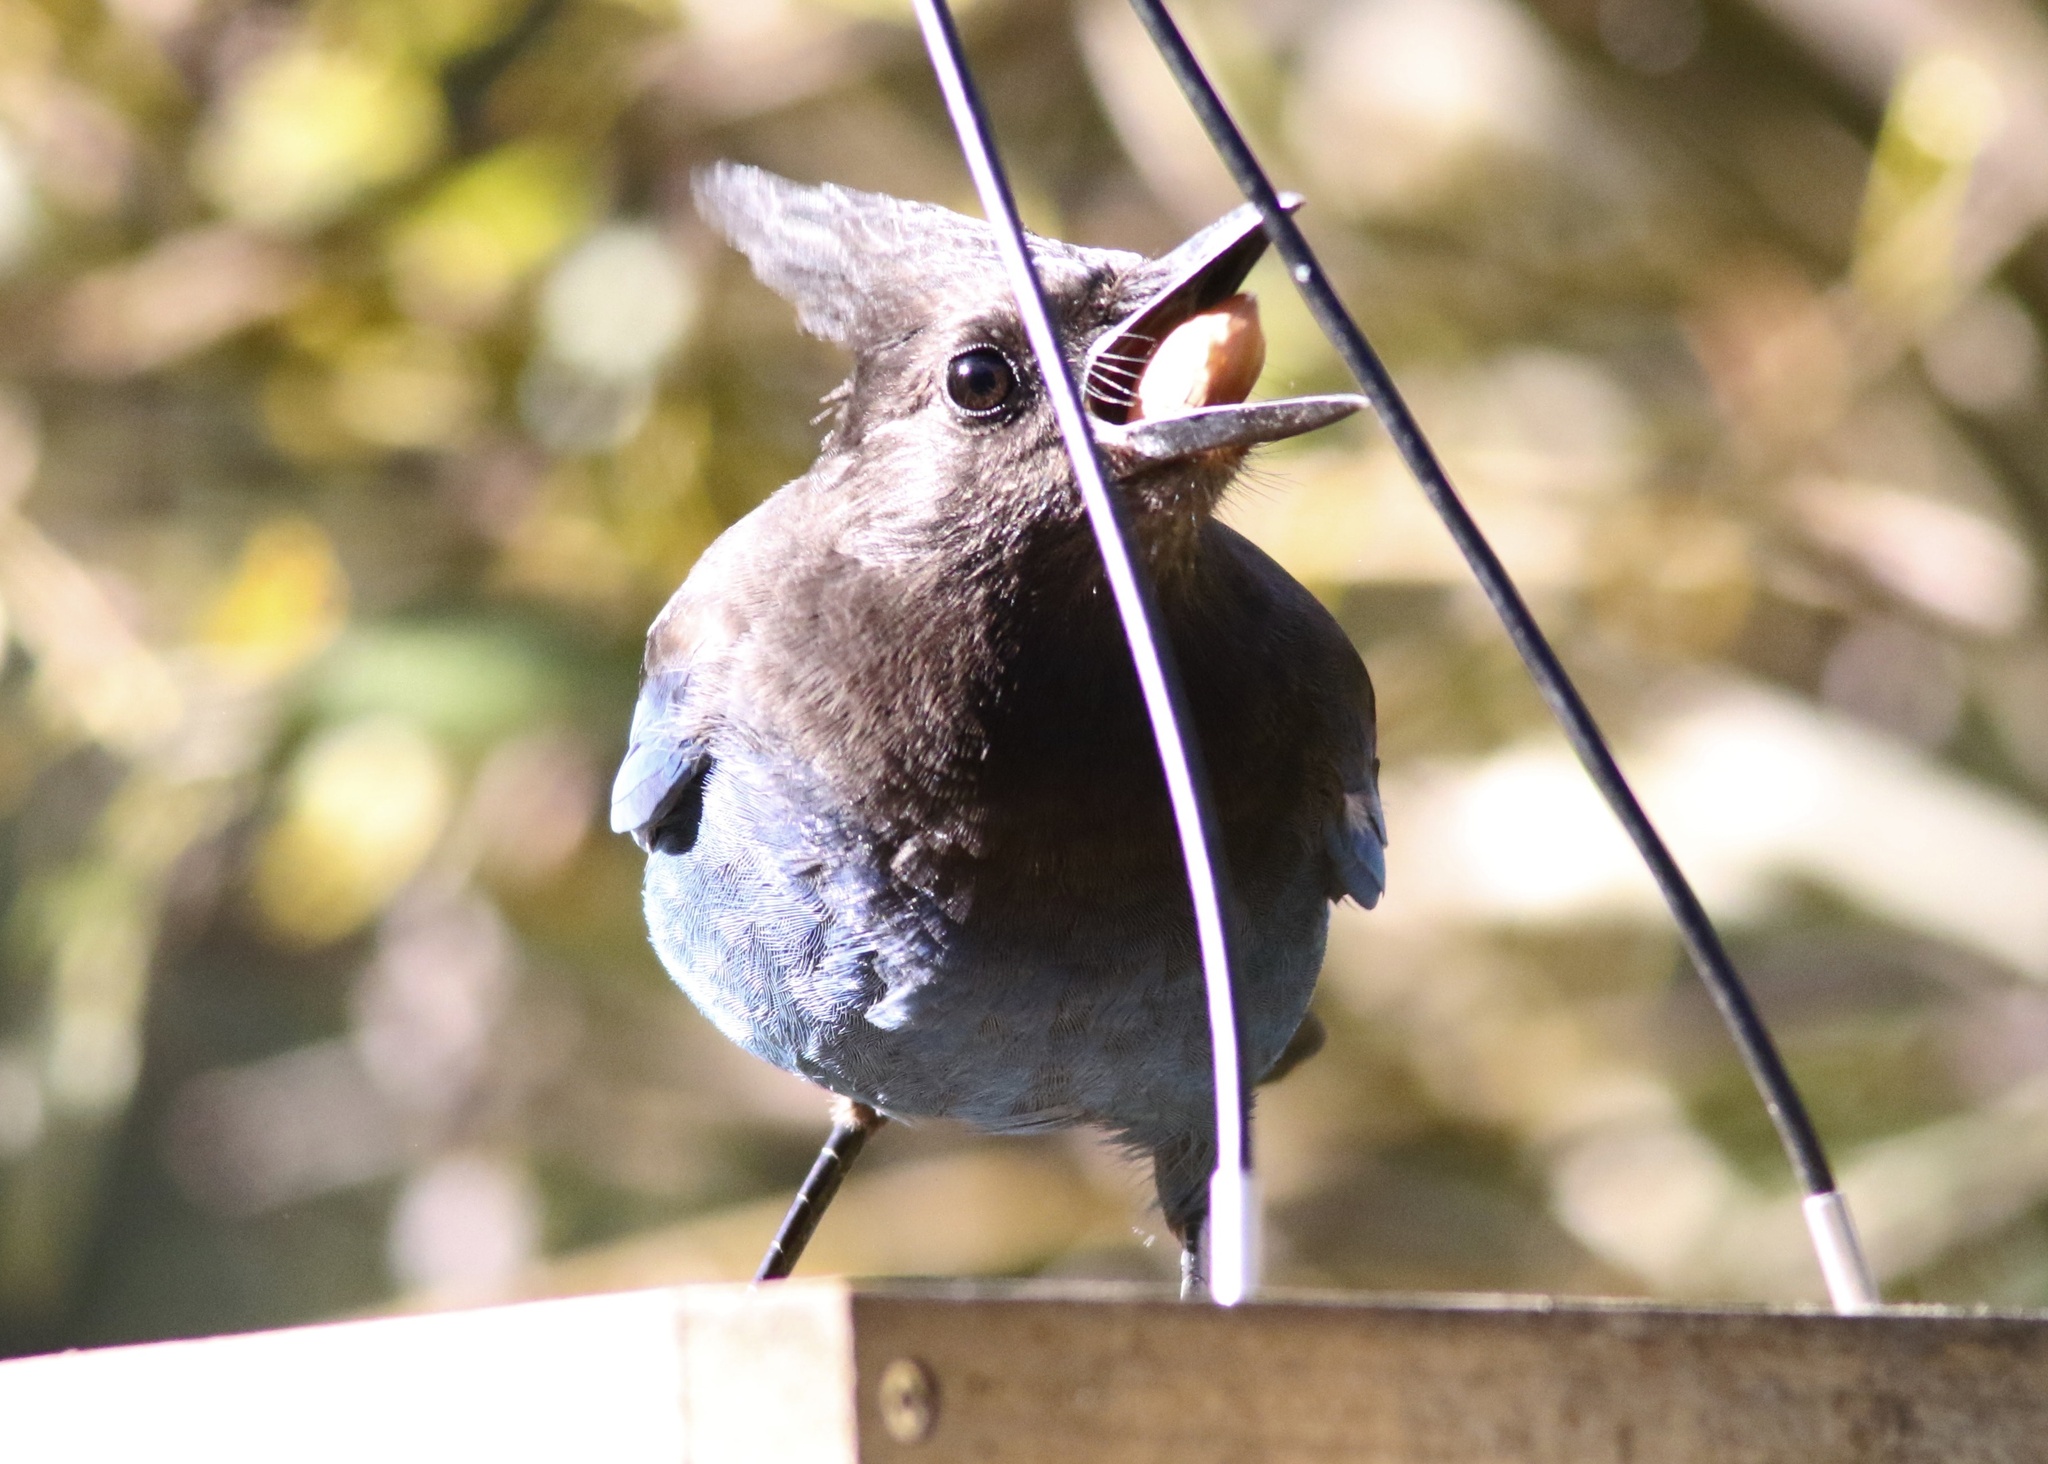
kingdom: Animalia
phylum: Chordata
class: Aves
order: Passeriformes
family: Corvidae
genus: Cyanocitta
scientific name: Cyanocitta stelleri
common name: Steller's jay
